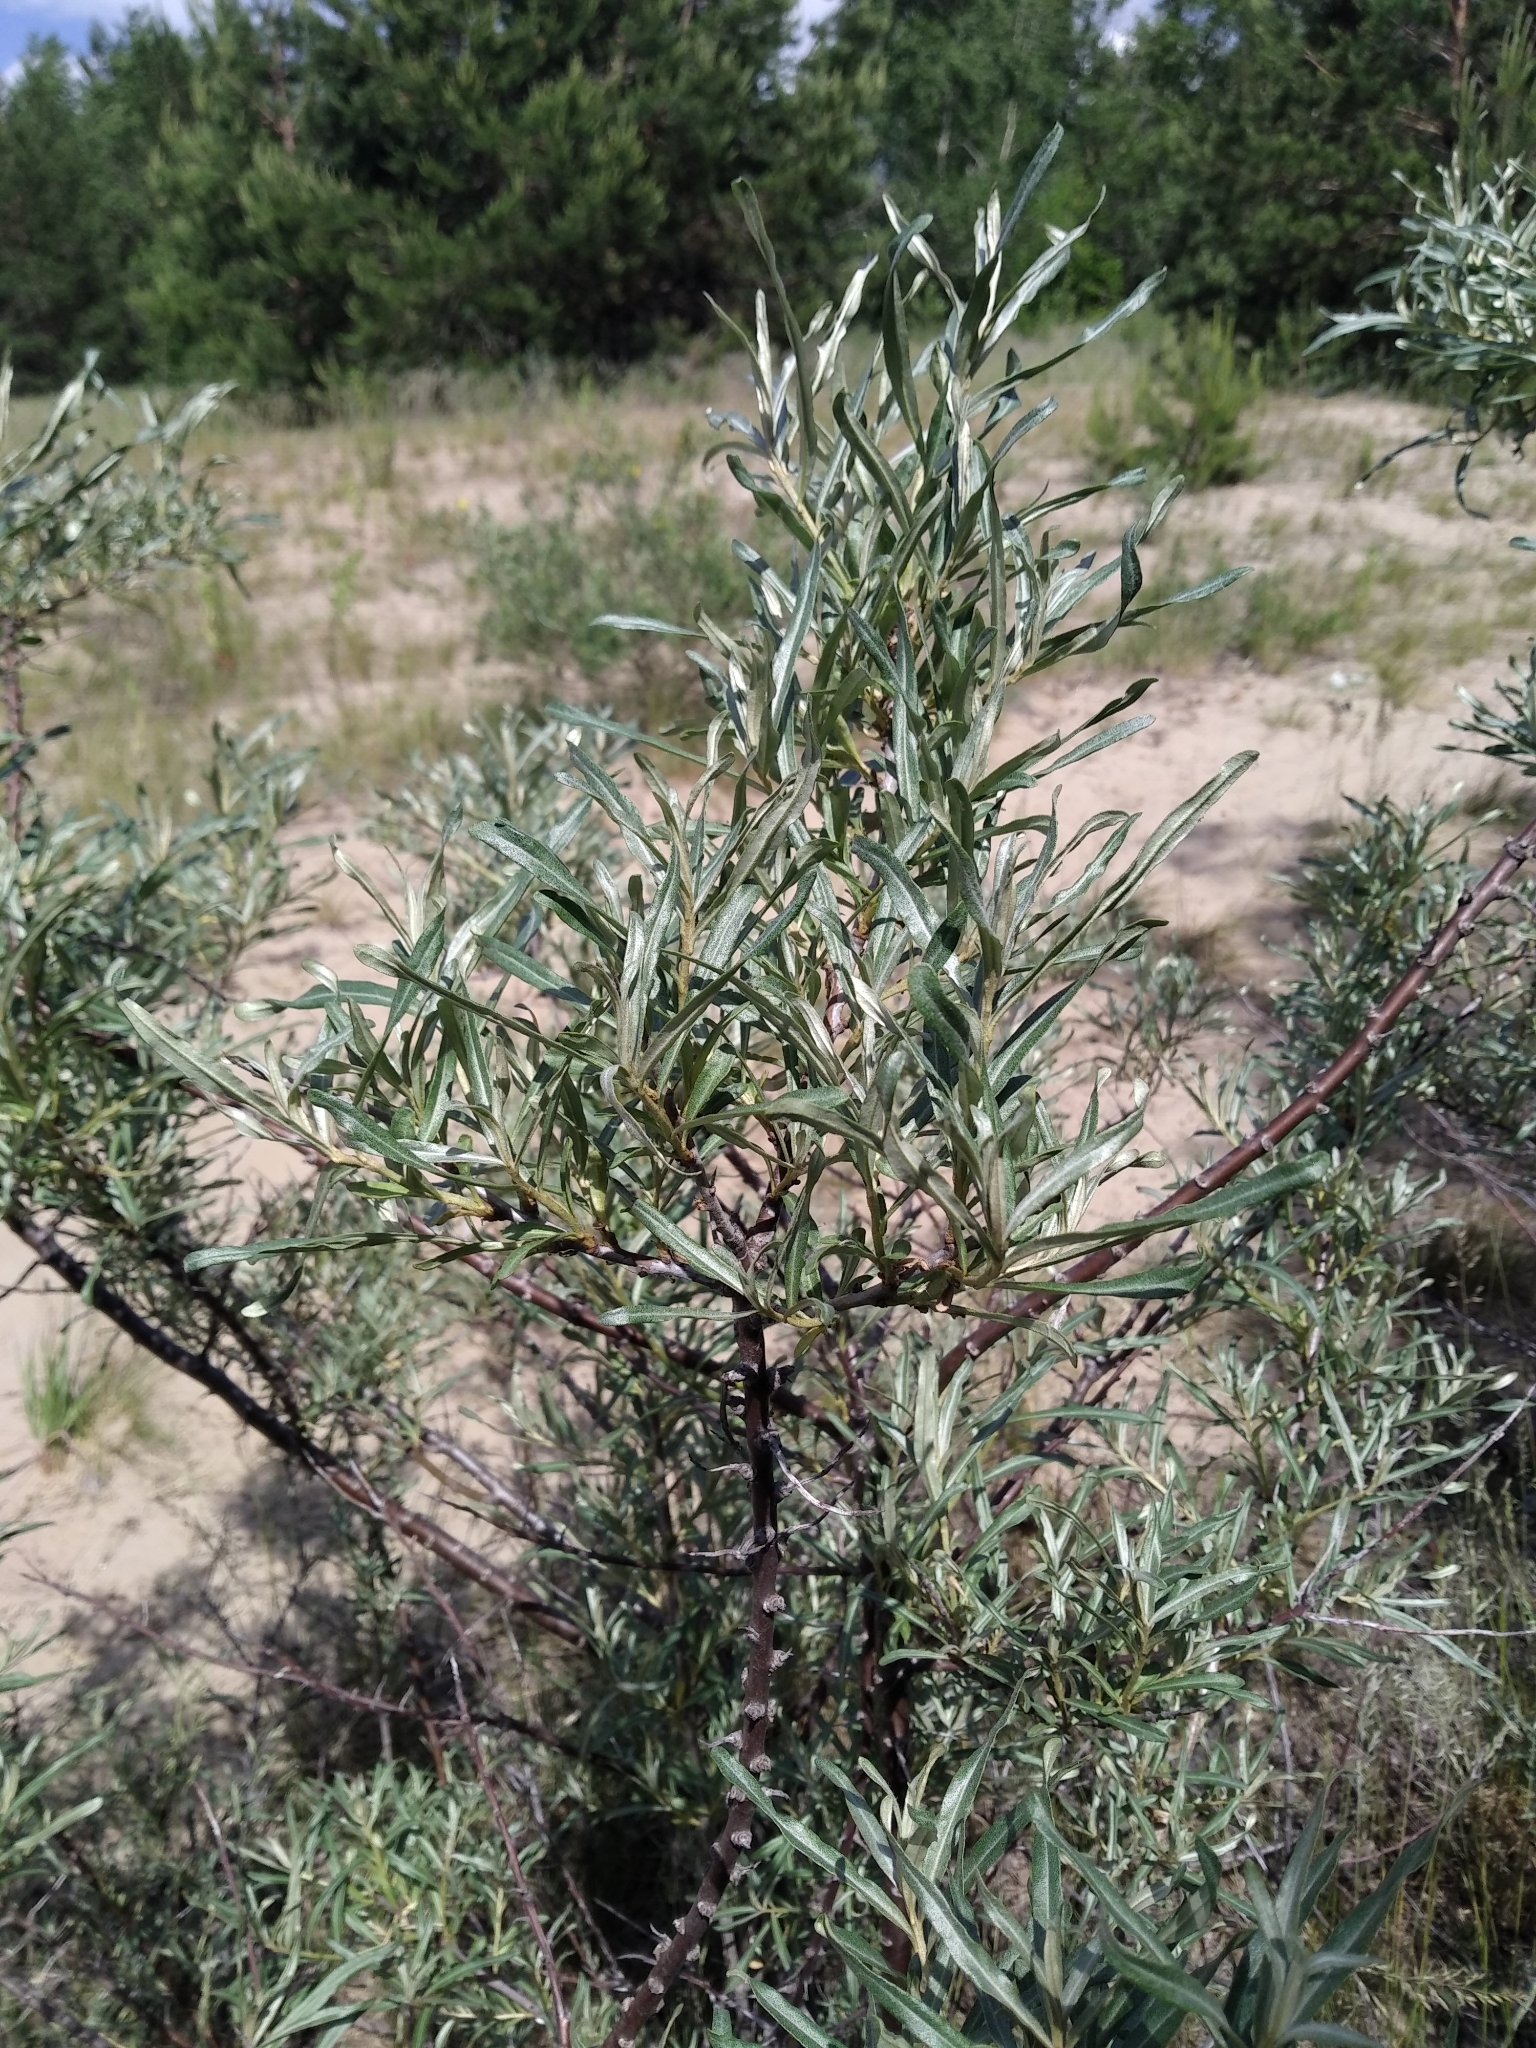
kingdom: Plantae
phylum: Tracheophyta
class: Magnoliopsida
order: Rosales
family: Elaeagnaceae
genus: Hippophae
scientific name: Hippophae rhamnoides
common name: Sea-buckthorn
